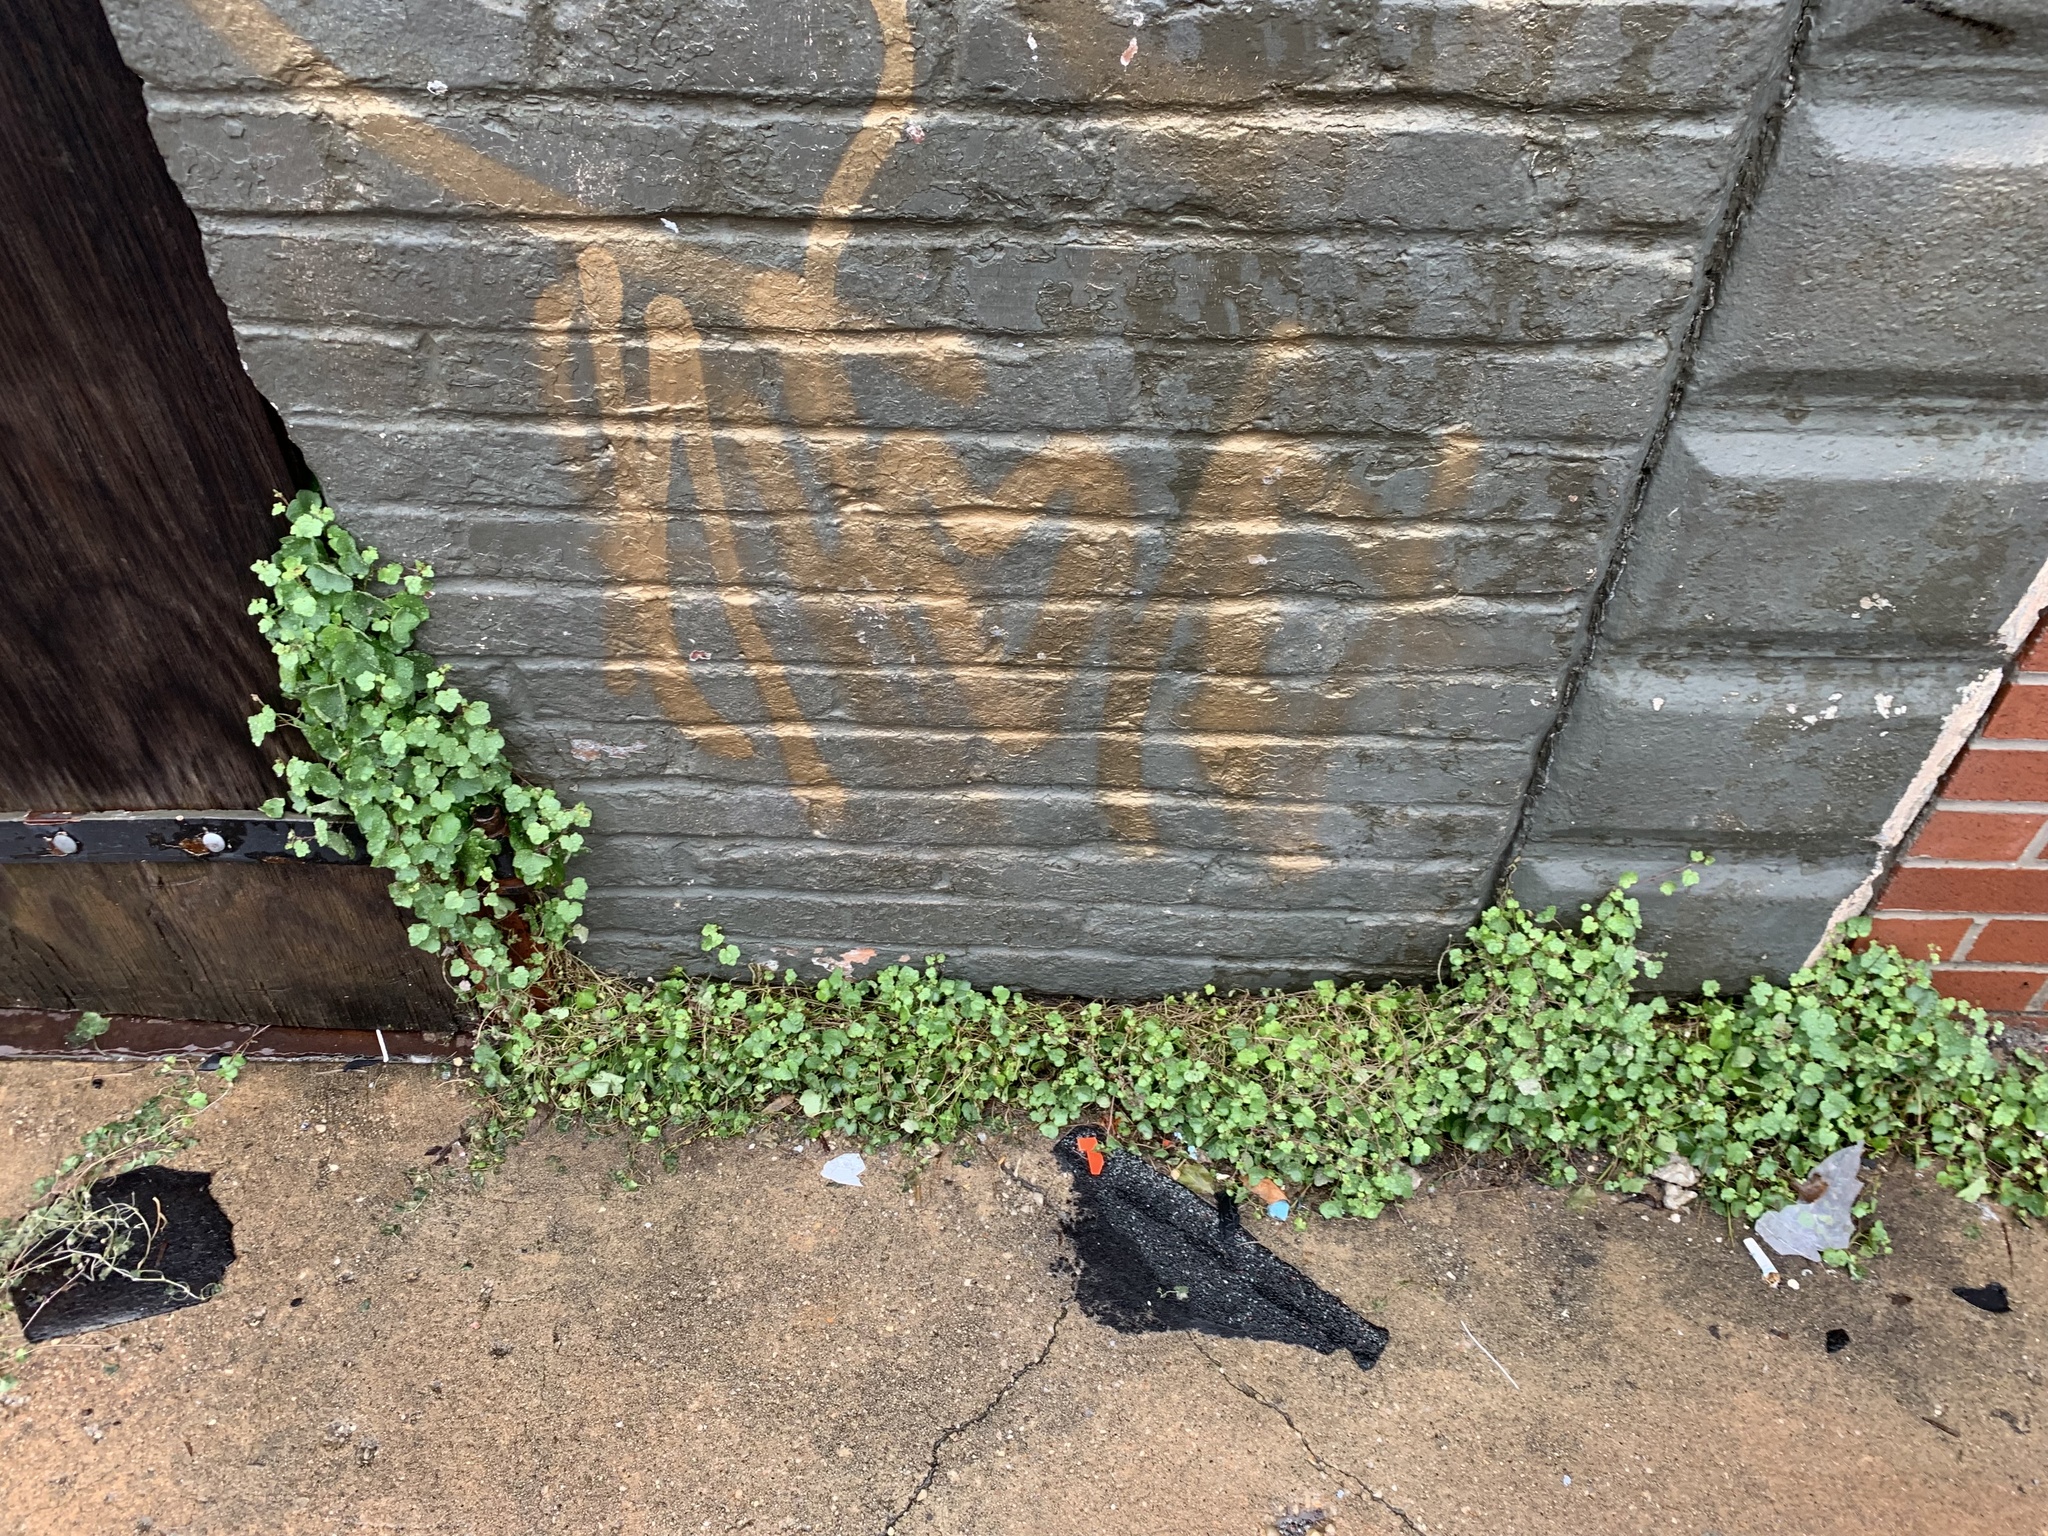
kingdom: Plantae
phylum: Tracheophyta
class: Magnoliopsida
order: Lamiales
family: Plantaginaceae
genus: Cymbalaria
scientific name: Cymbalaria muralis
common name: Ivy-leaved toadflax
